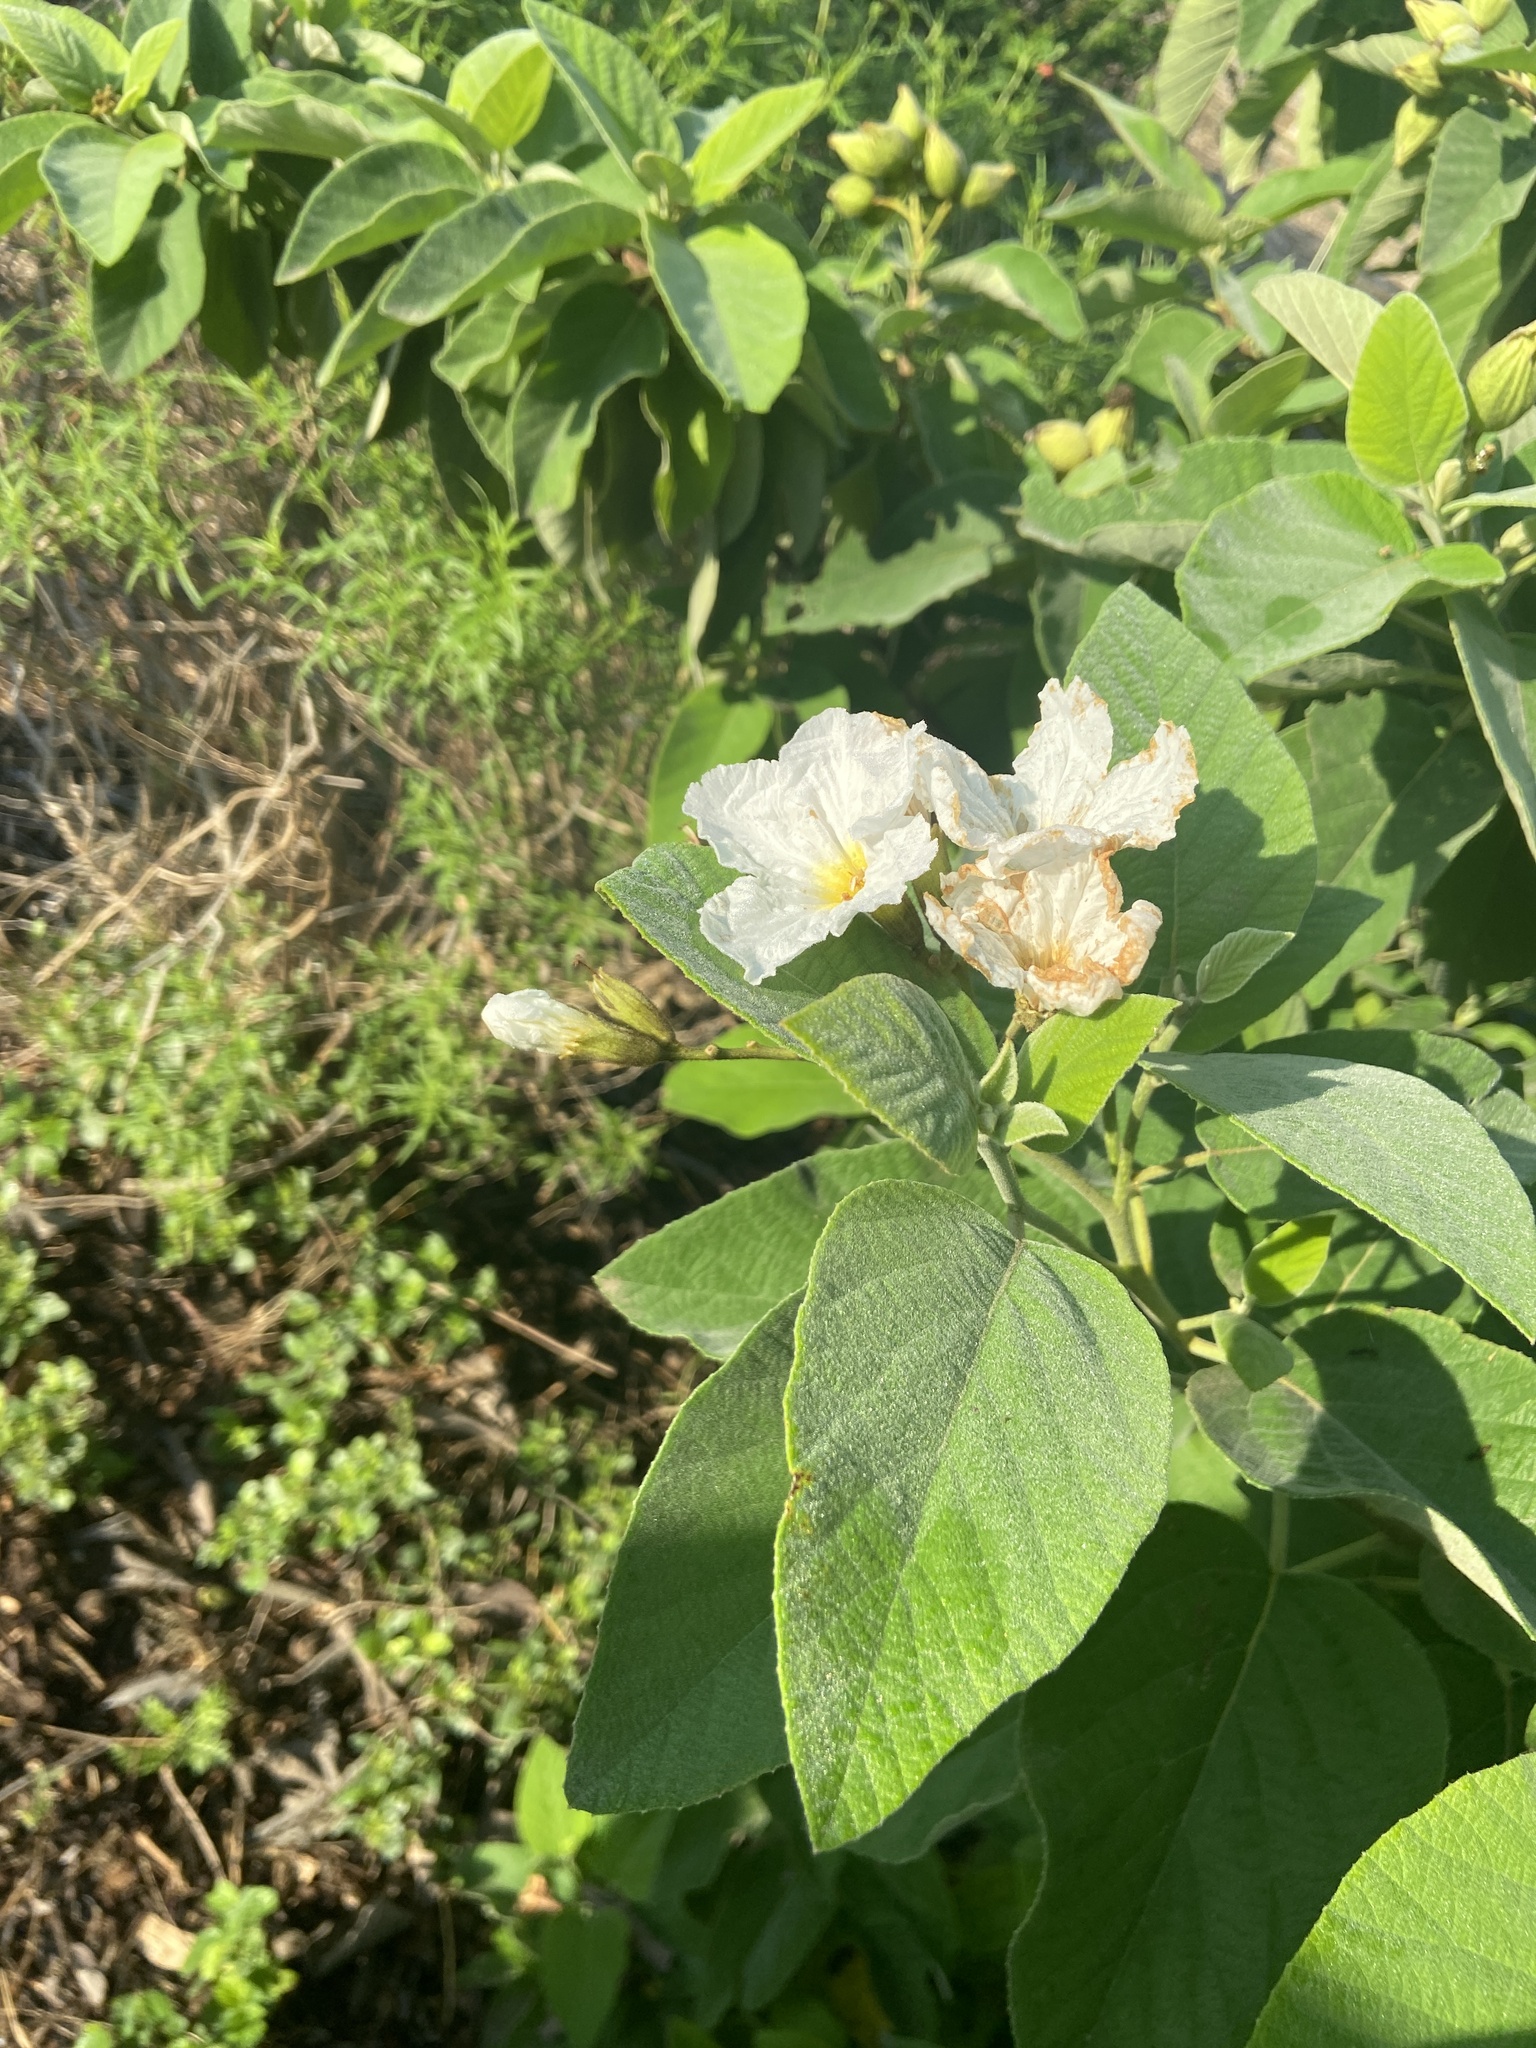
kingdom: Plantae
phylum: Tracheophyta
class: Magnoliopsida
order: Boraginales
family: Cordiaceae
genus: Cordia
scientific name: Cordia boissieri
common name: Mexican-olive
